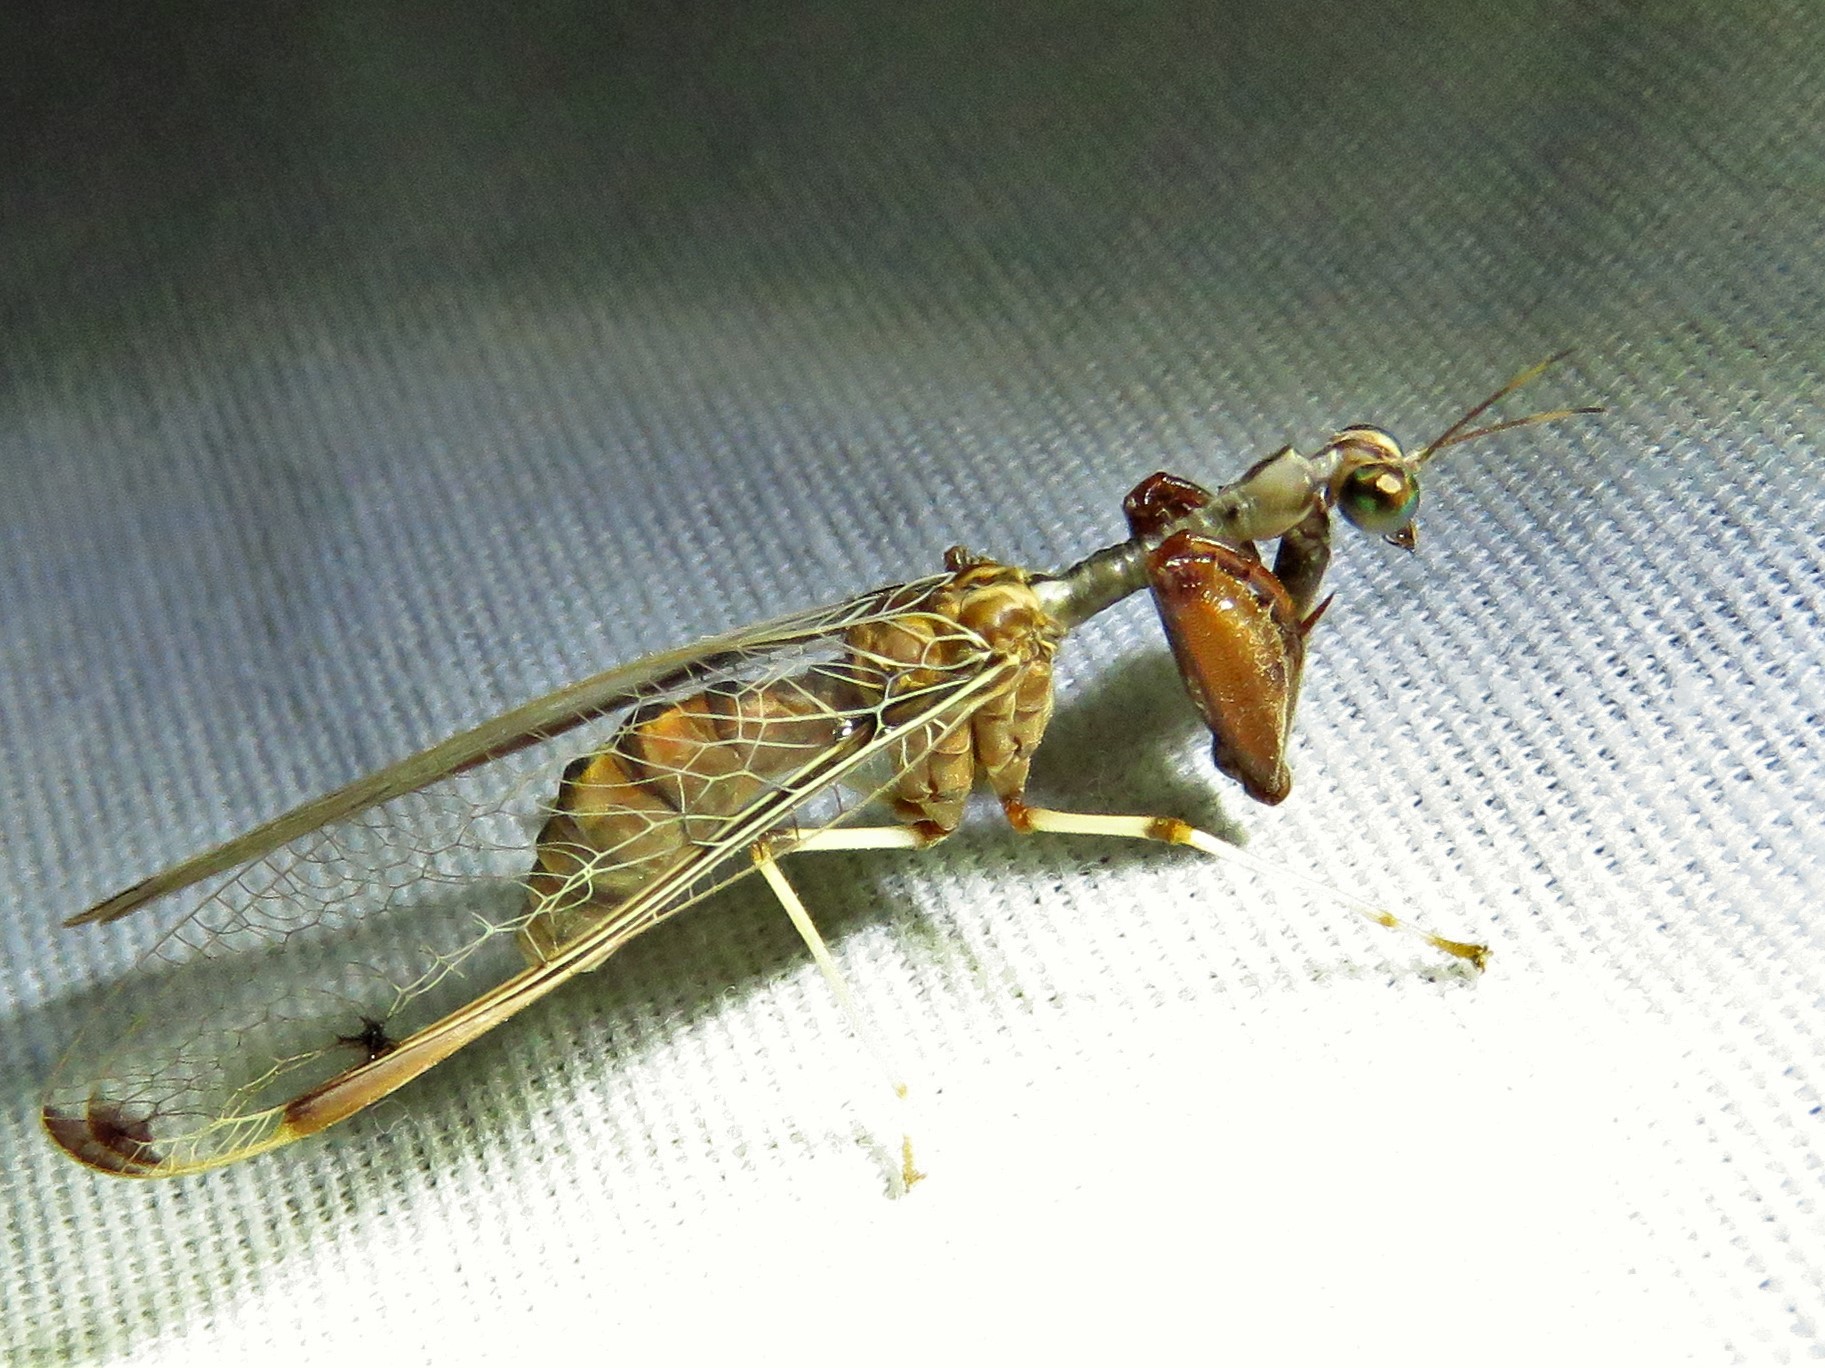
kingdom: Animalia
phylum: Arthropoda
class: Insecta
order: Neuroptera
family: Mantispidae
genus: Dicromantispa
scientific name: Dicromantispa interrupta
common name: Four-spotted mantidfly
